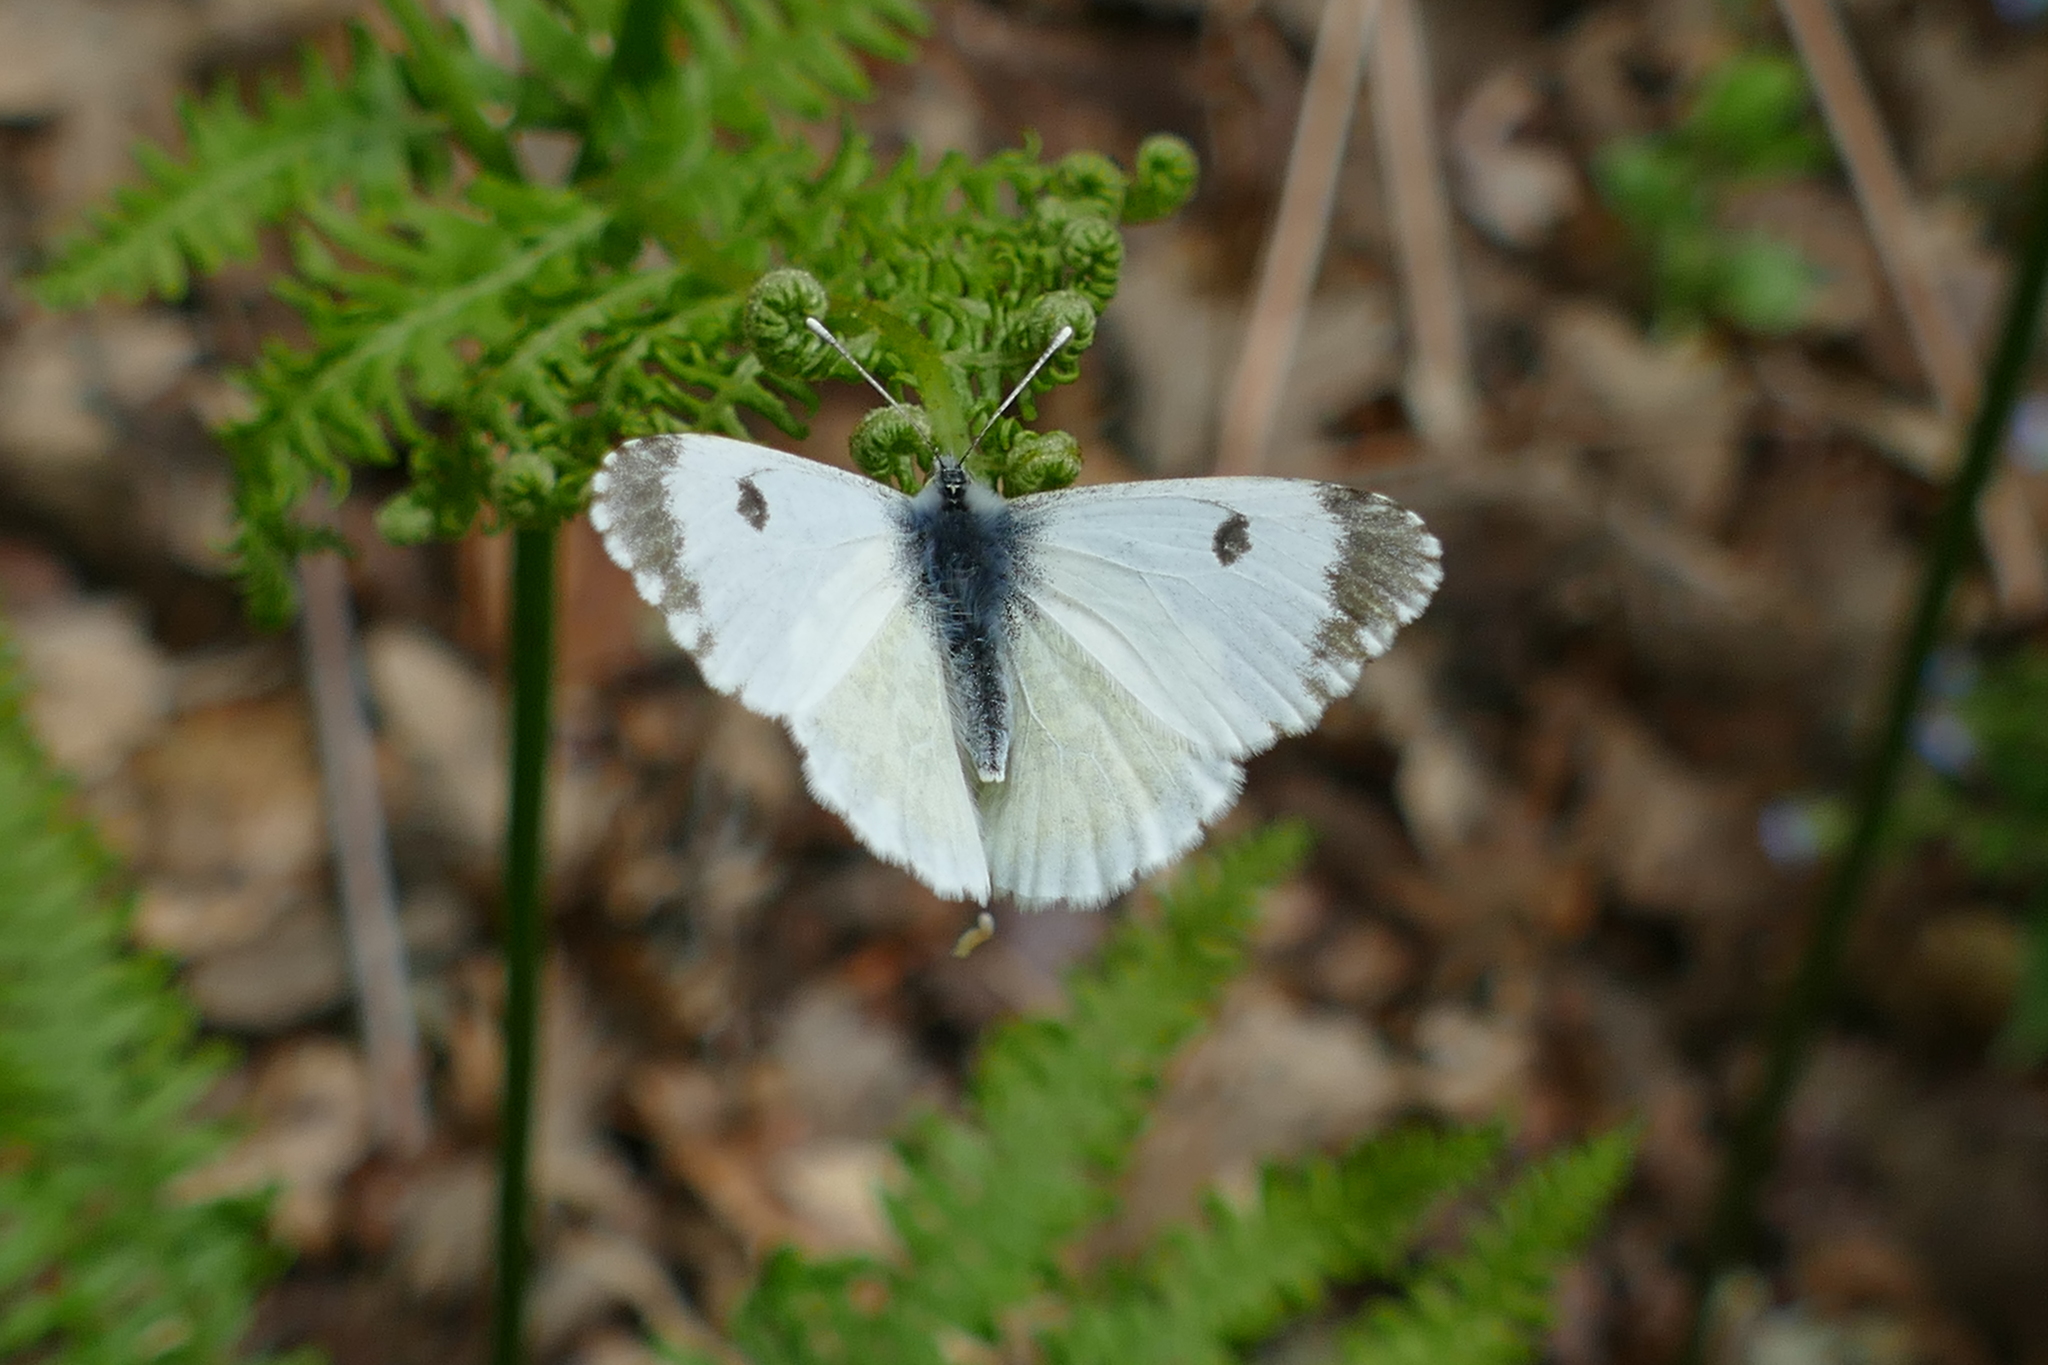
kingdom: Animalia
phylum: Arthropoda
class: Insecta
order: Lepidoptera
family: Pieridae
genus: Anthocharis
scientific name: Anthocharis cardamines
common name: Orange-tip
